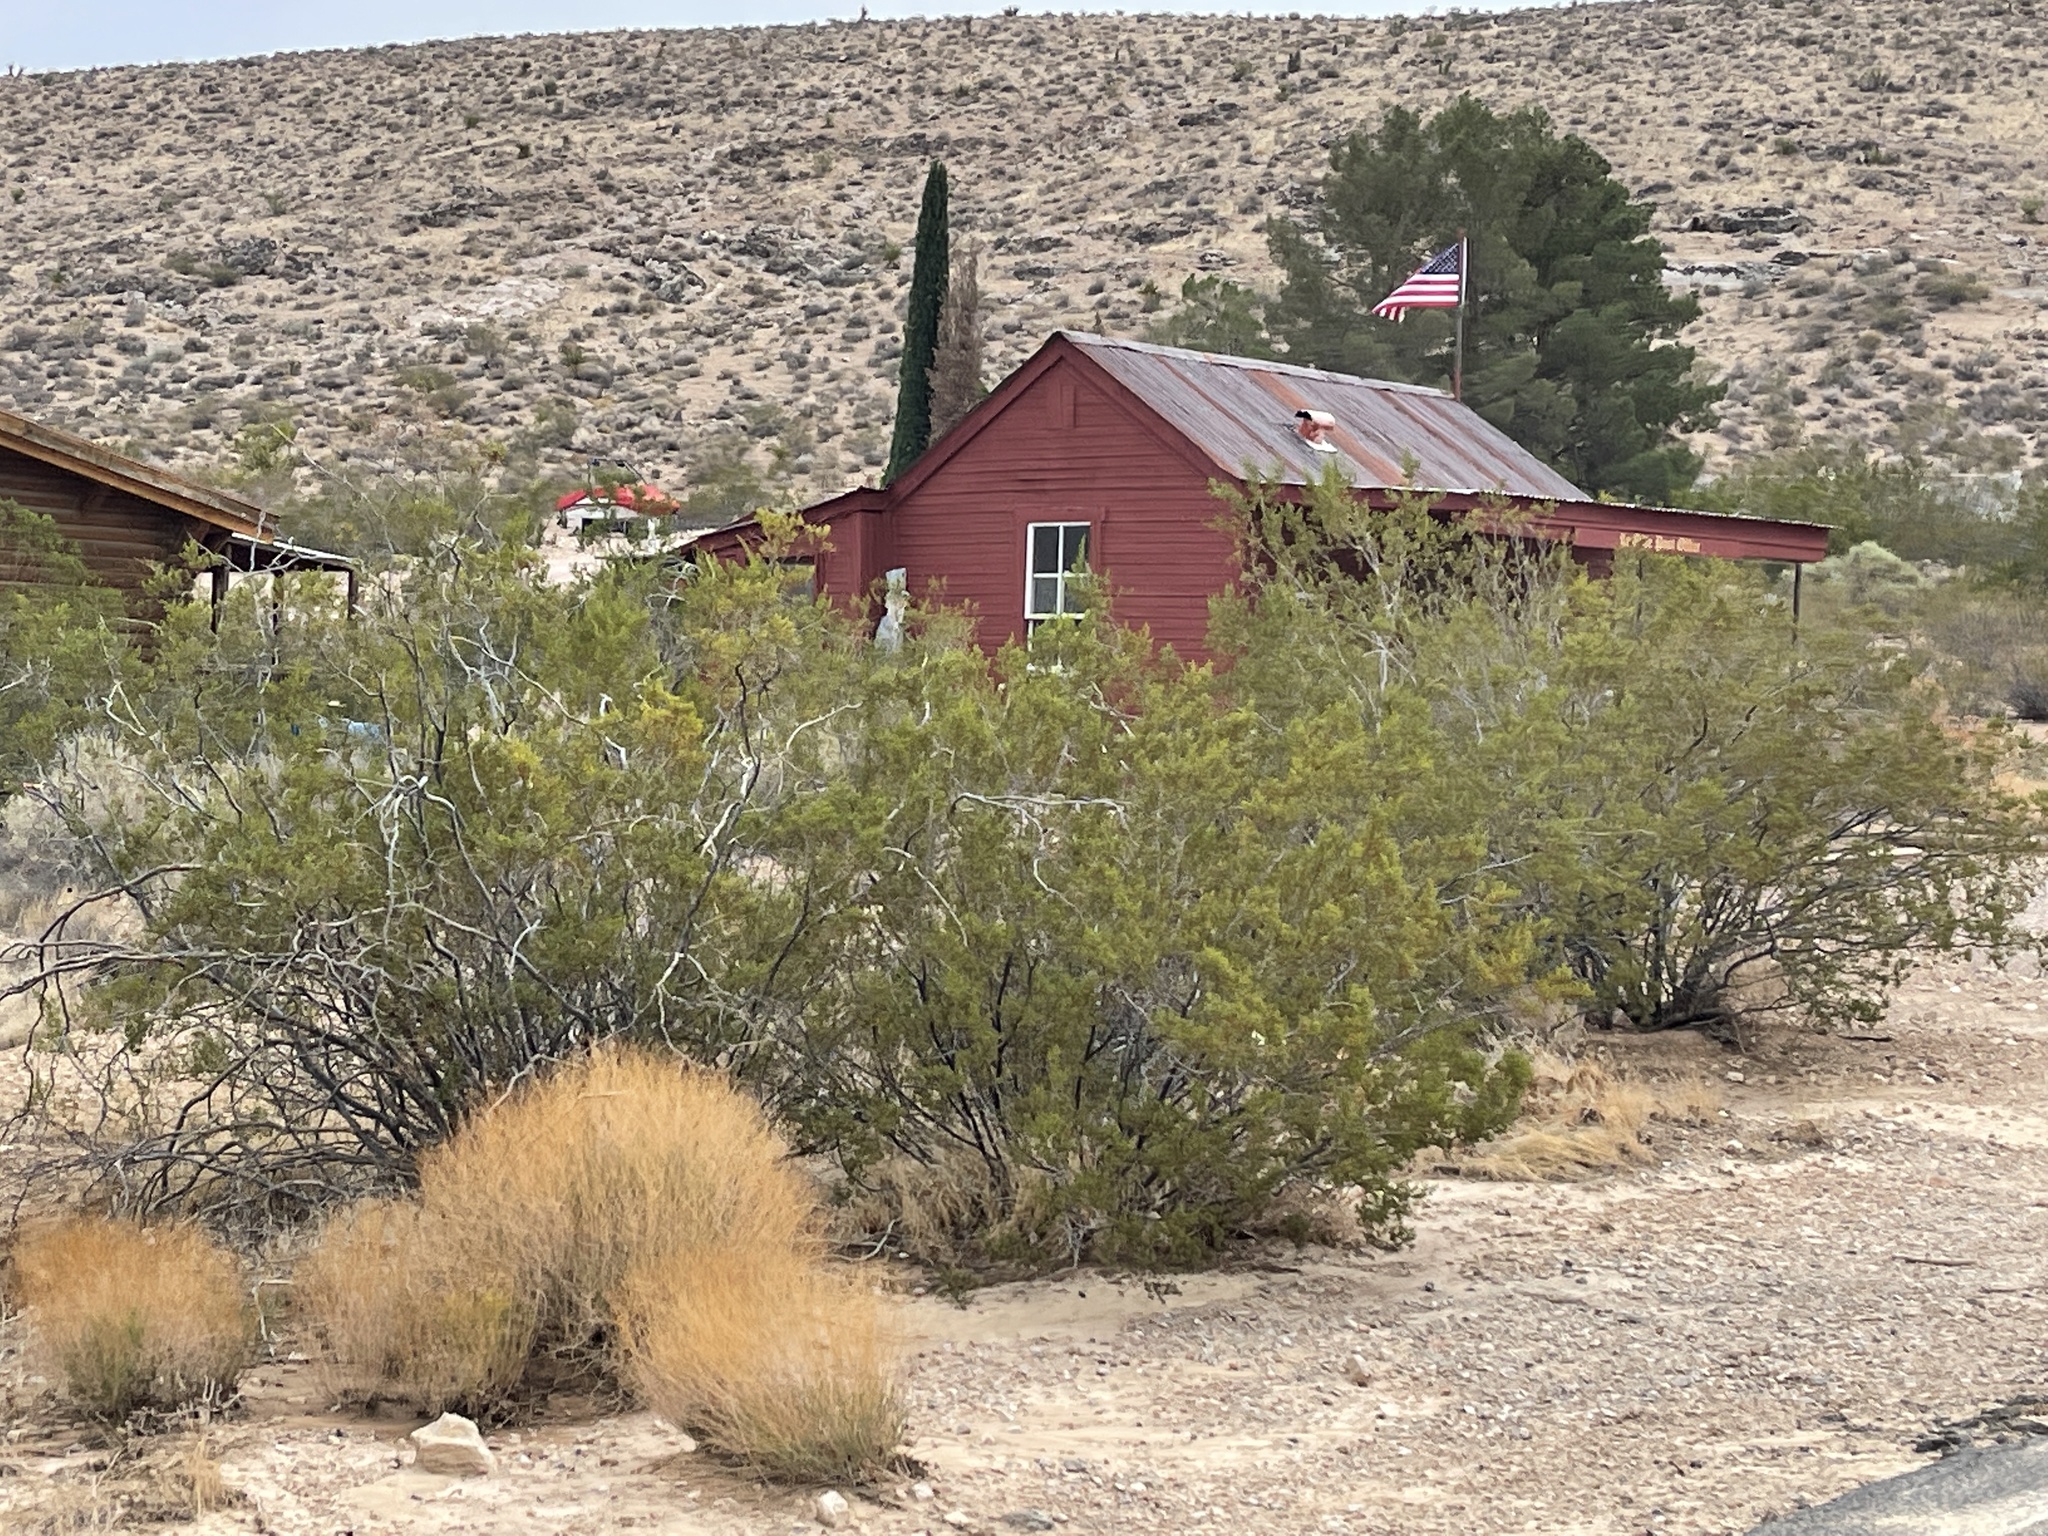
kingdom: Plantae
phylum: Tracheophyta
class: Magnoliopsida
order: Zygophyllales
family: Zygophyllaceae
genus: Larrea
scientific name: Larrea tridentata
